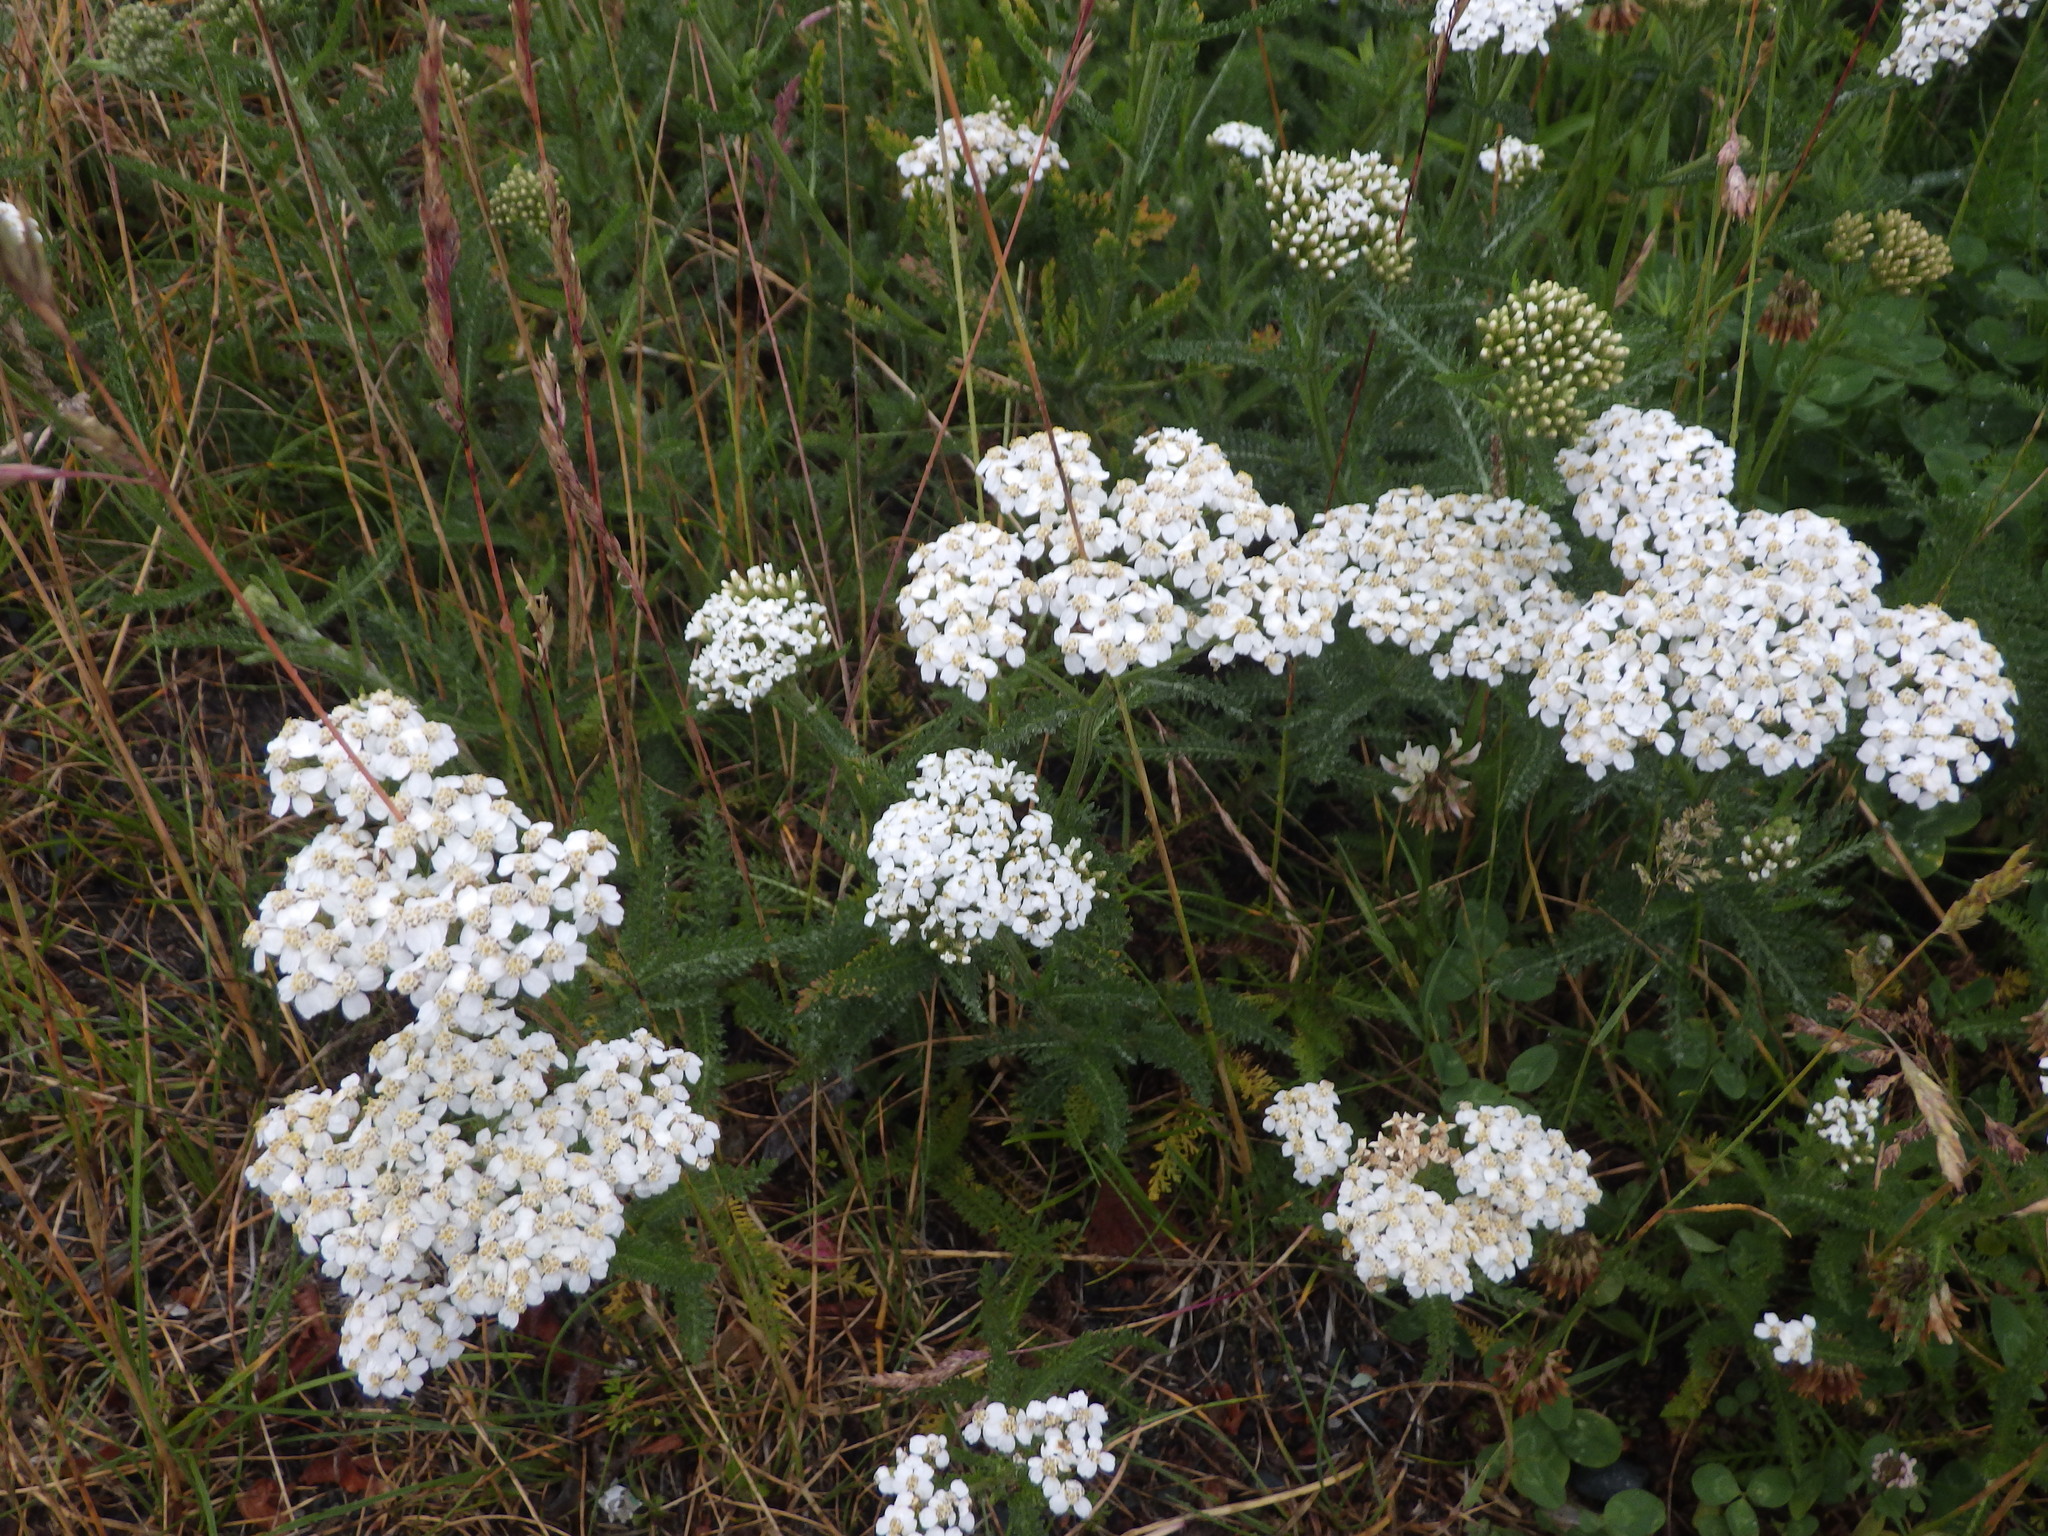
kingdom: Plantae
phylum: Tracheophyta
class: Magnoliopsida
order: Asterales
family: Asteraceae
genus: Achillea
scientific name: Achillea millefolium
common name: Yarrow
